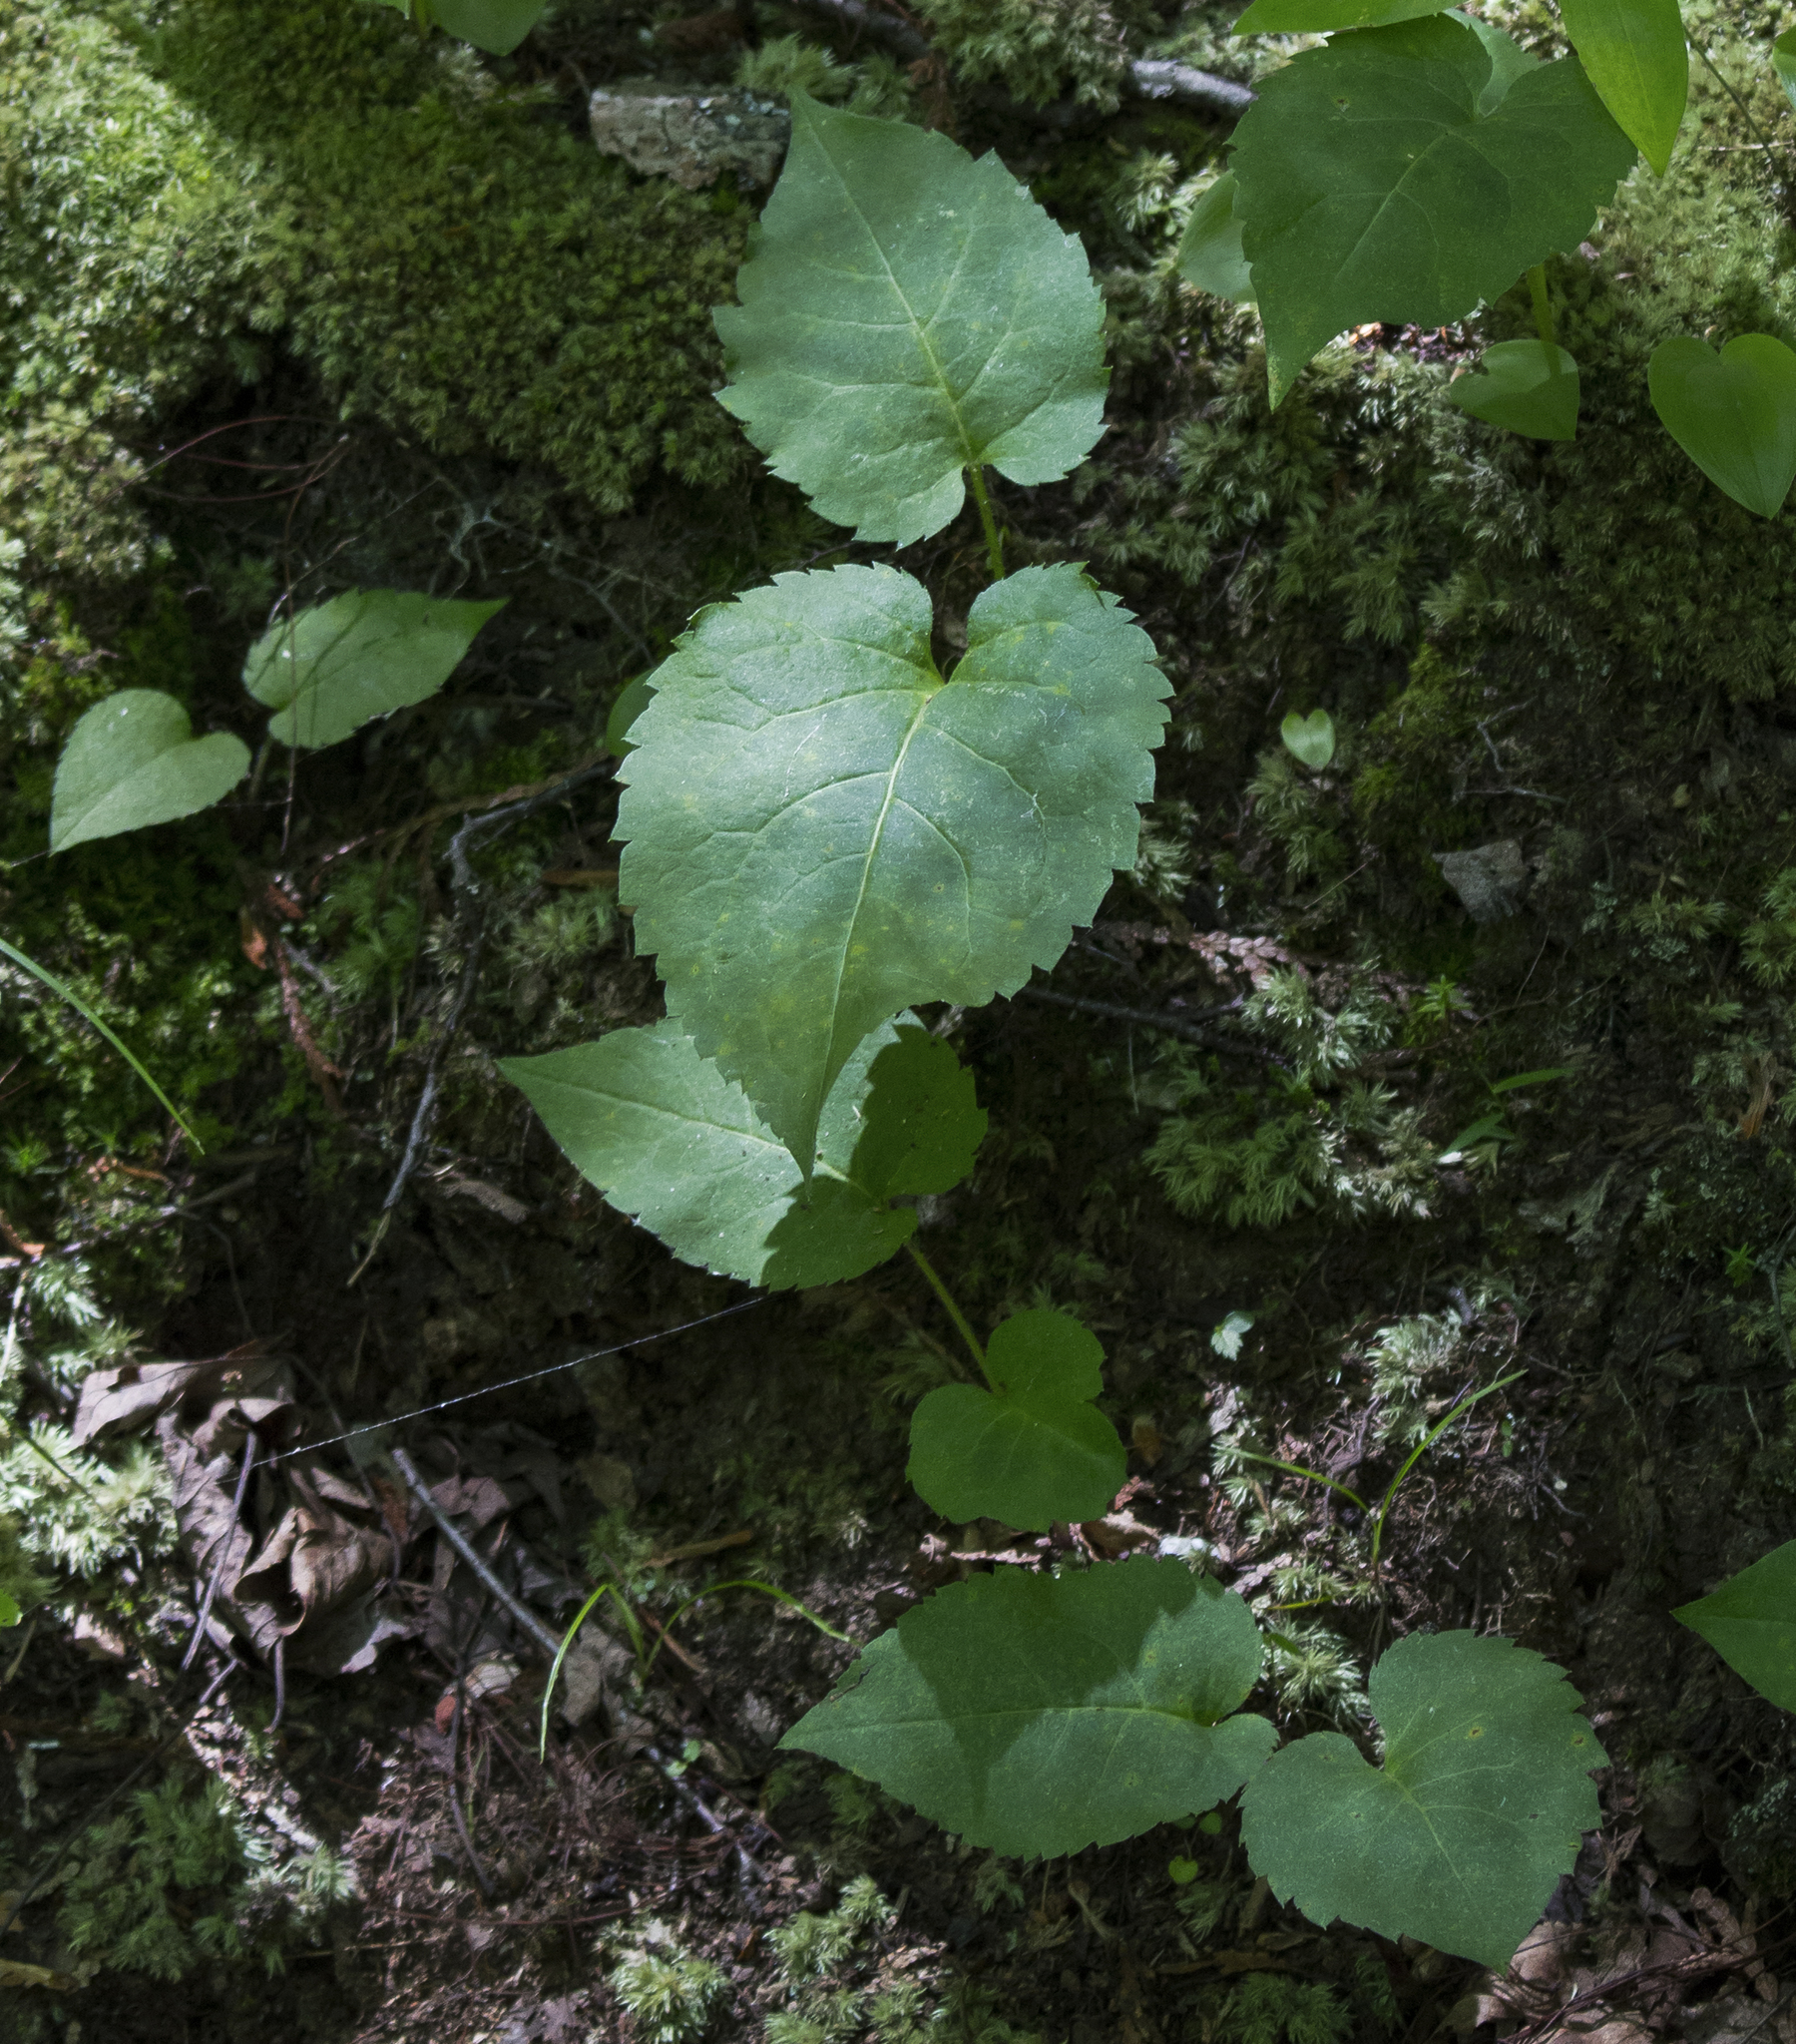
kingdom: Plantae
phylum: Tracheophyta
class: Magnoliopsida
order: Asterales
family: Asteraceae
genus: Eurybia
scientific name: Eurybia macrophylla
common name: Big-leaved aster
